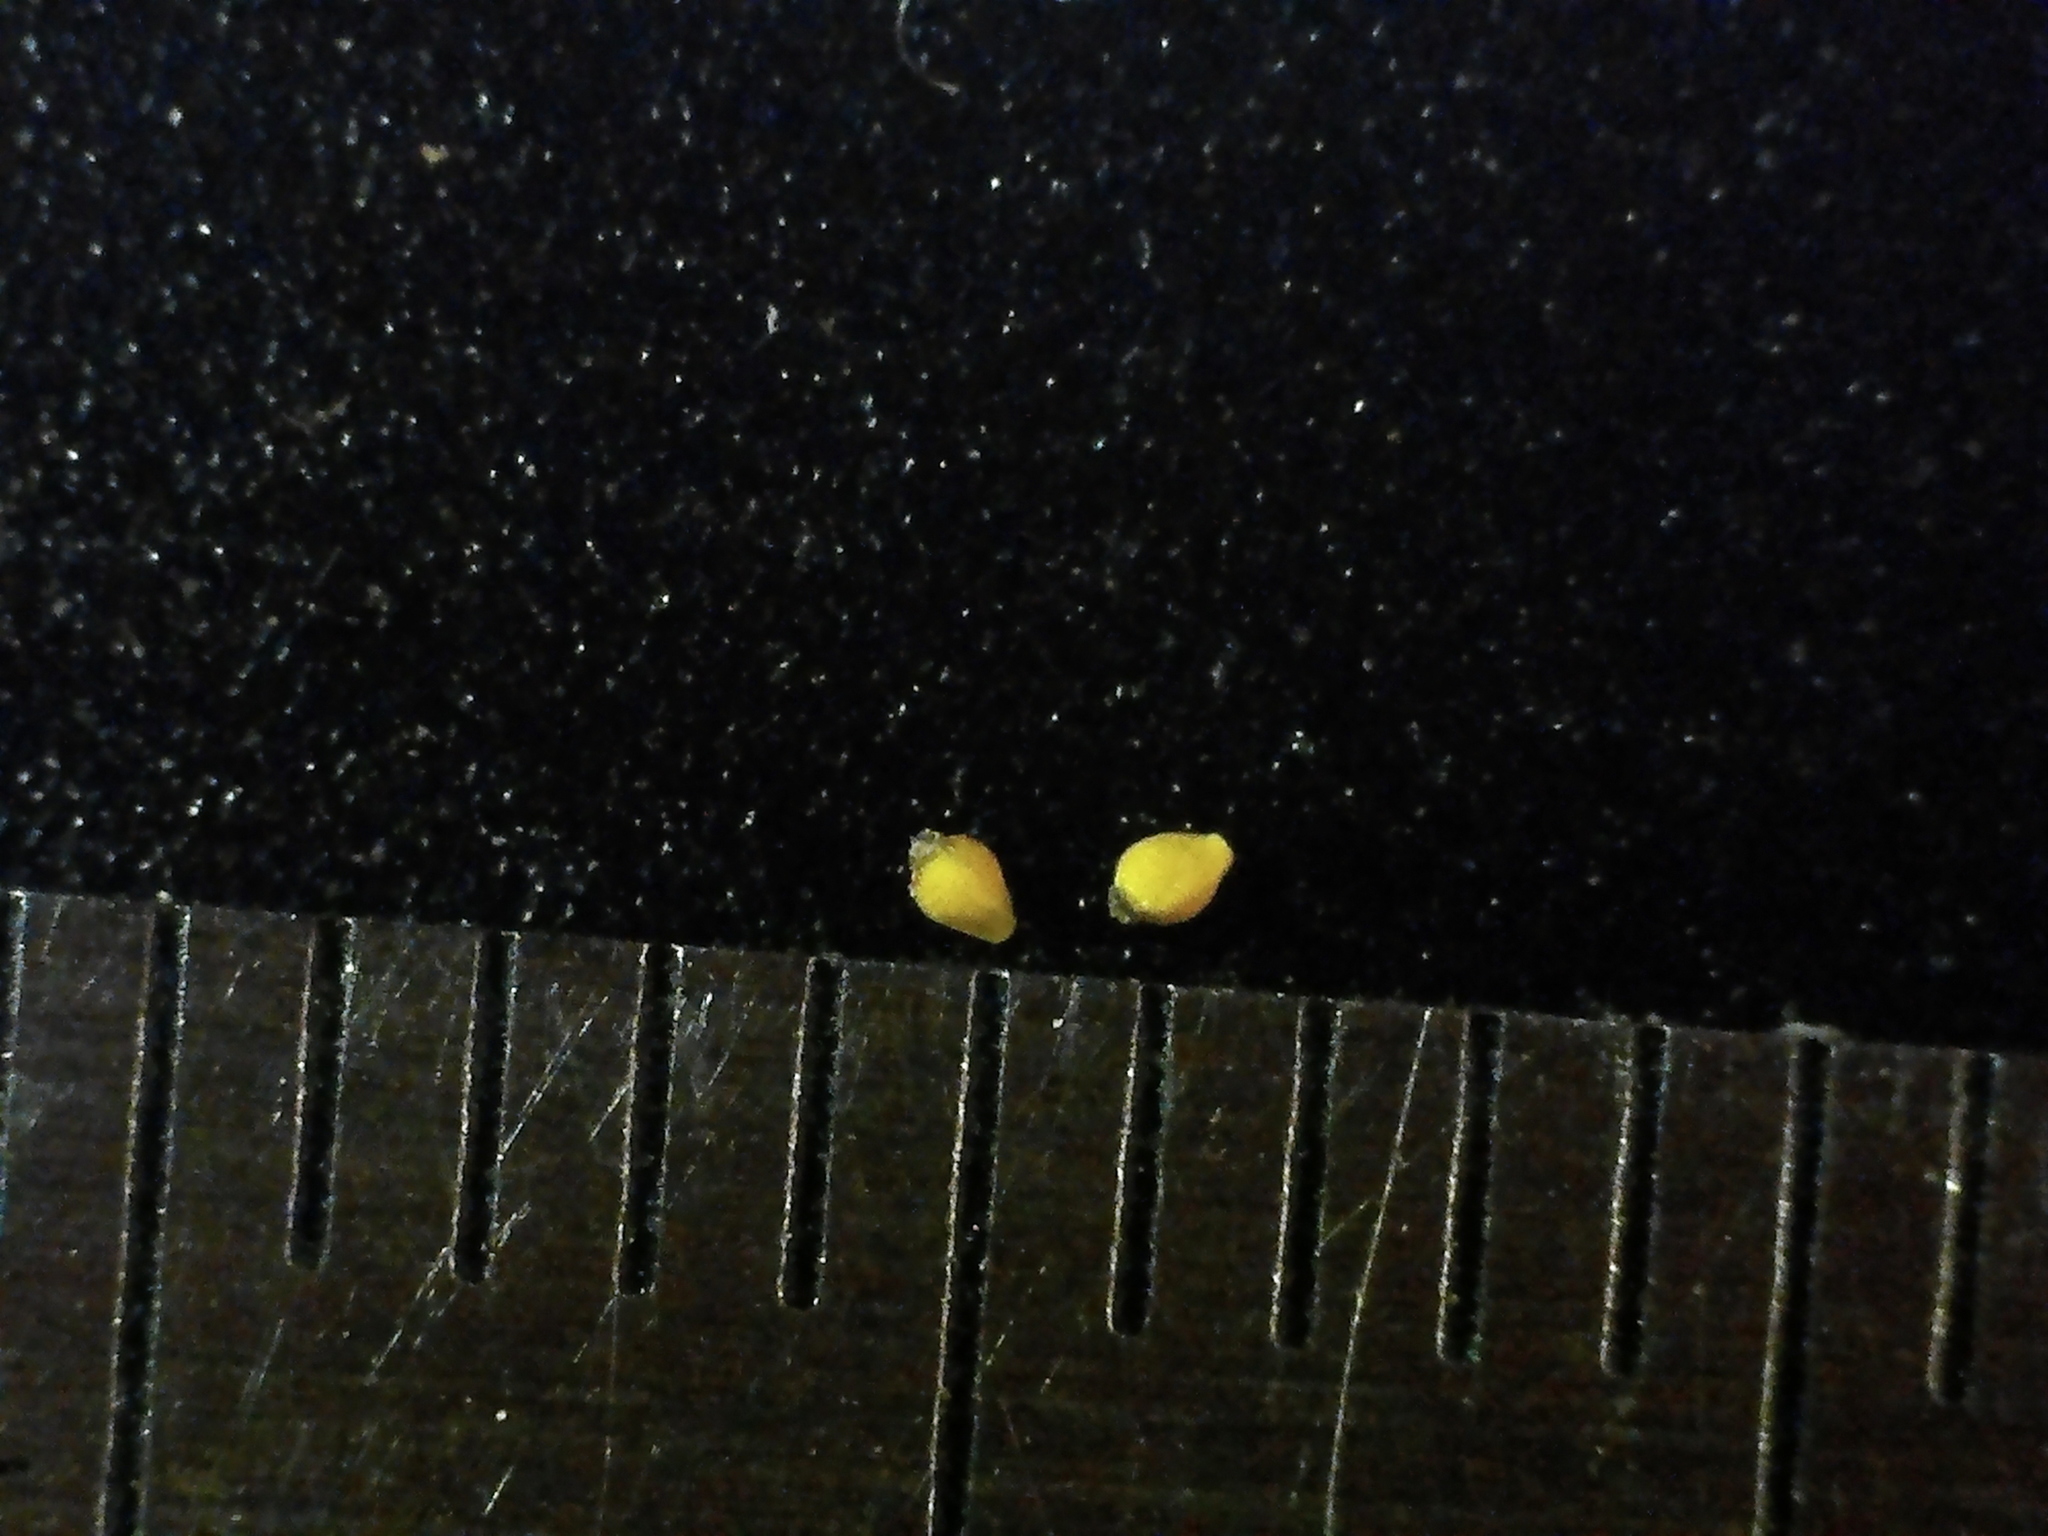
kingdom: Plantae
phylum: Tracheophyta
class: Liliopsida
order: Poales
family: Cyperaceae
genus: Eleocharis
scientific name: Eleocharis nitida
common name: Neat spikerush
